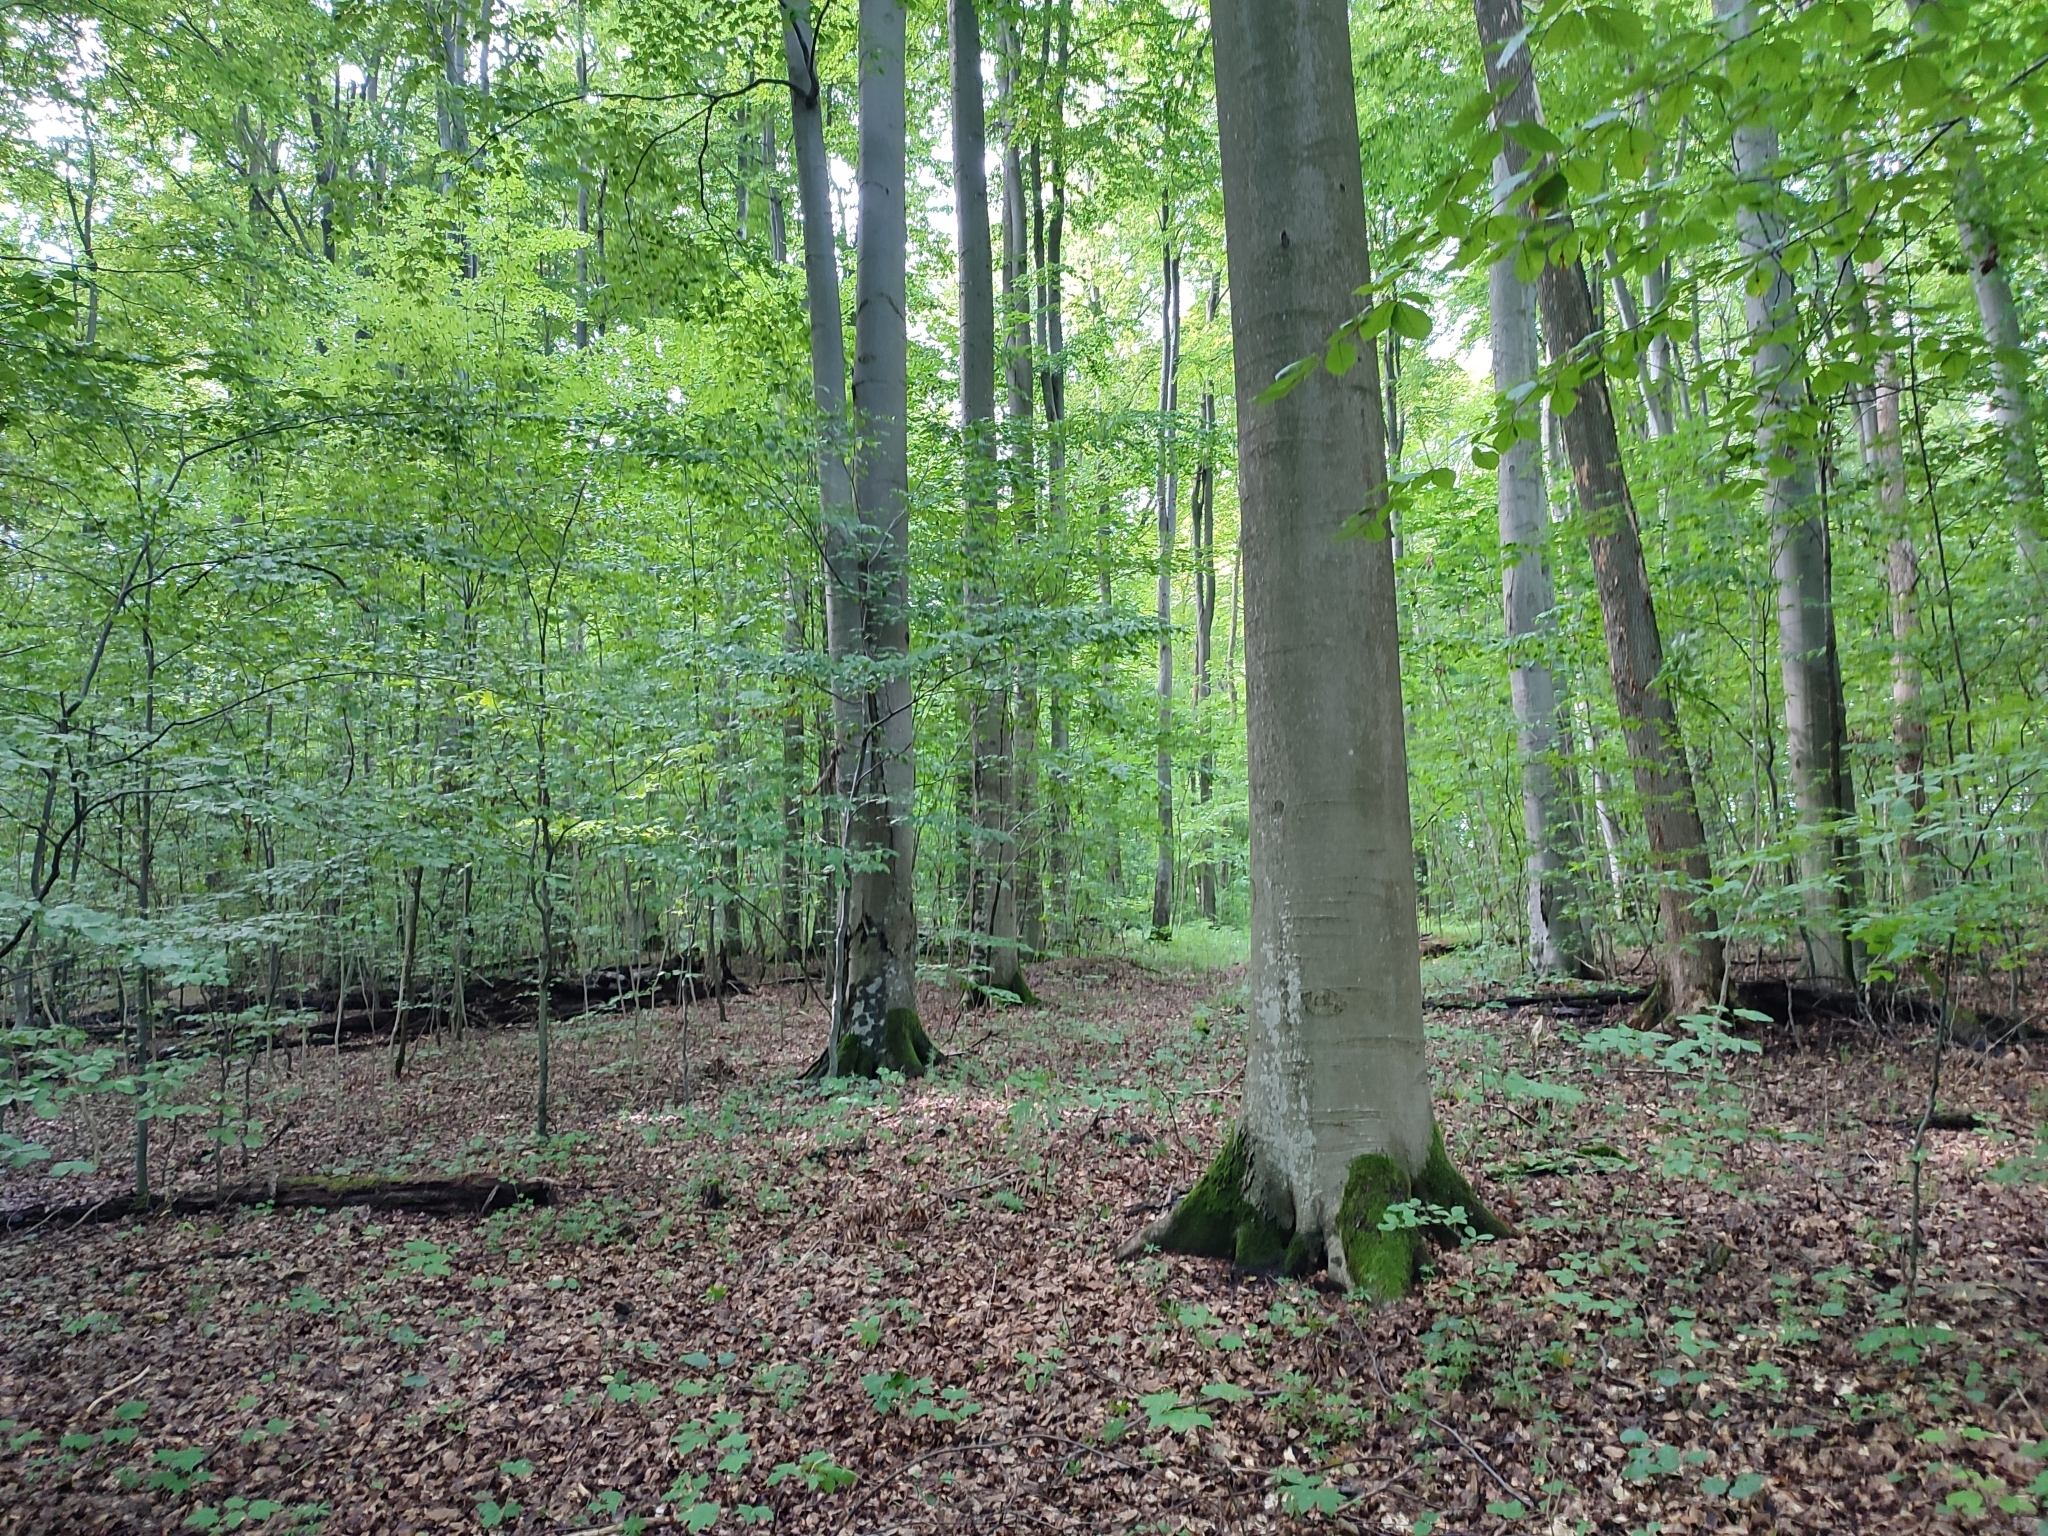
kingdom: Plantae
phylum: Tracheophyta
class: Magnoliopsida
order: Fagales
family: Fagaceae
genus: Fagus
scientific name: Fagus sylvatica
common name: Beech
